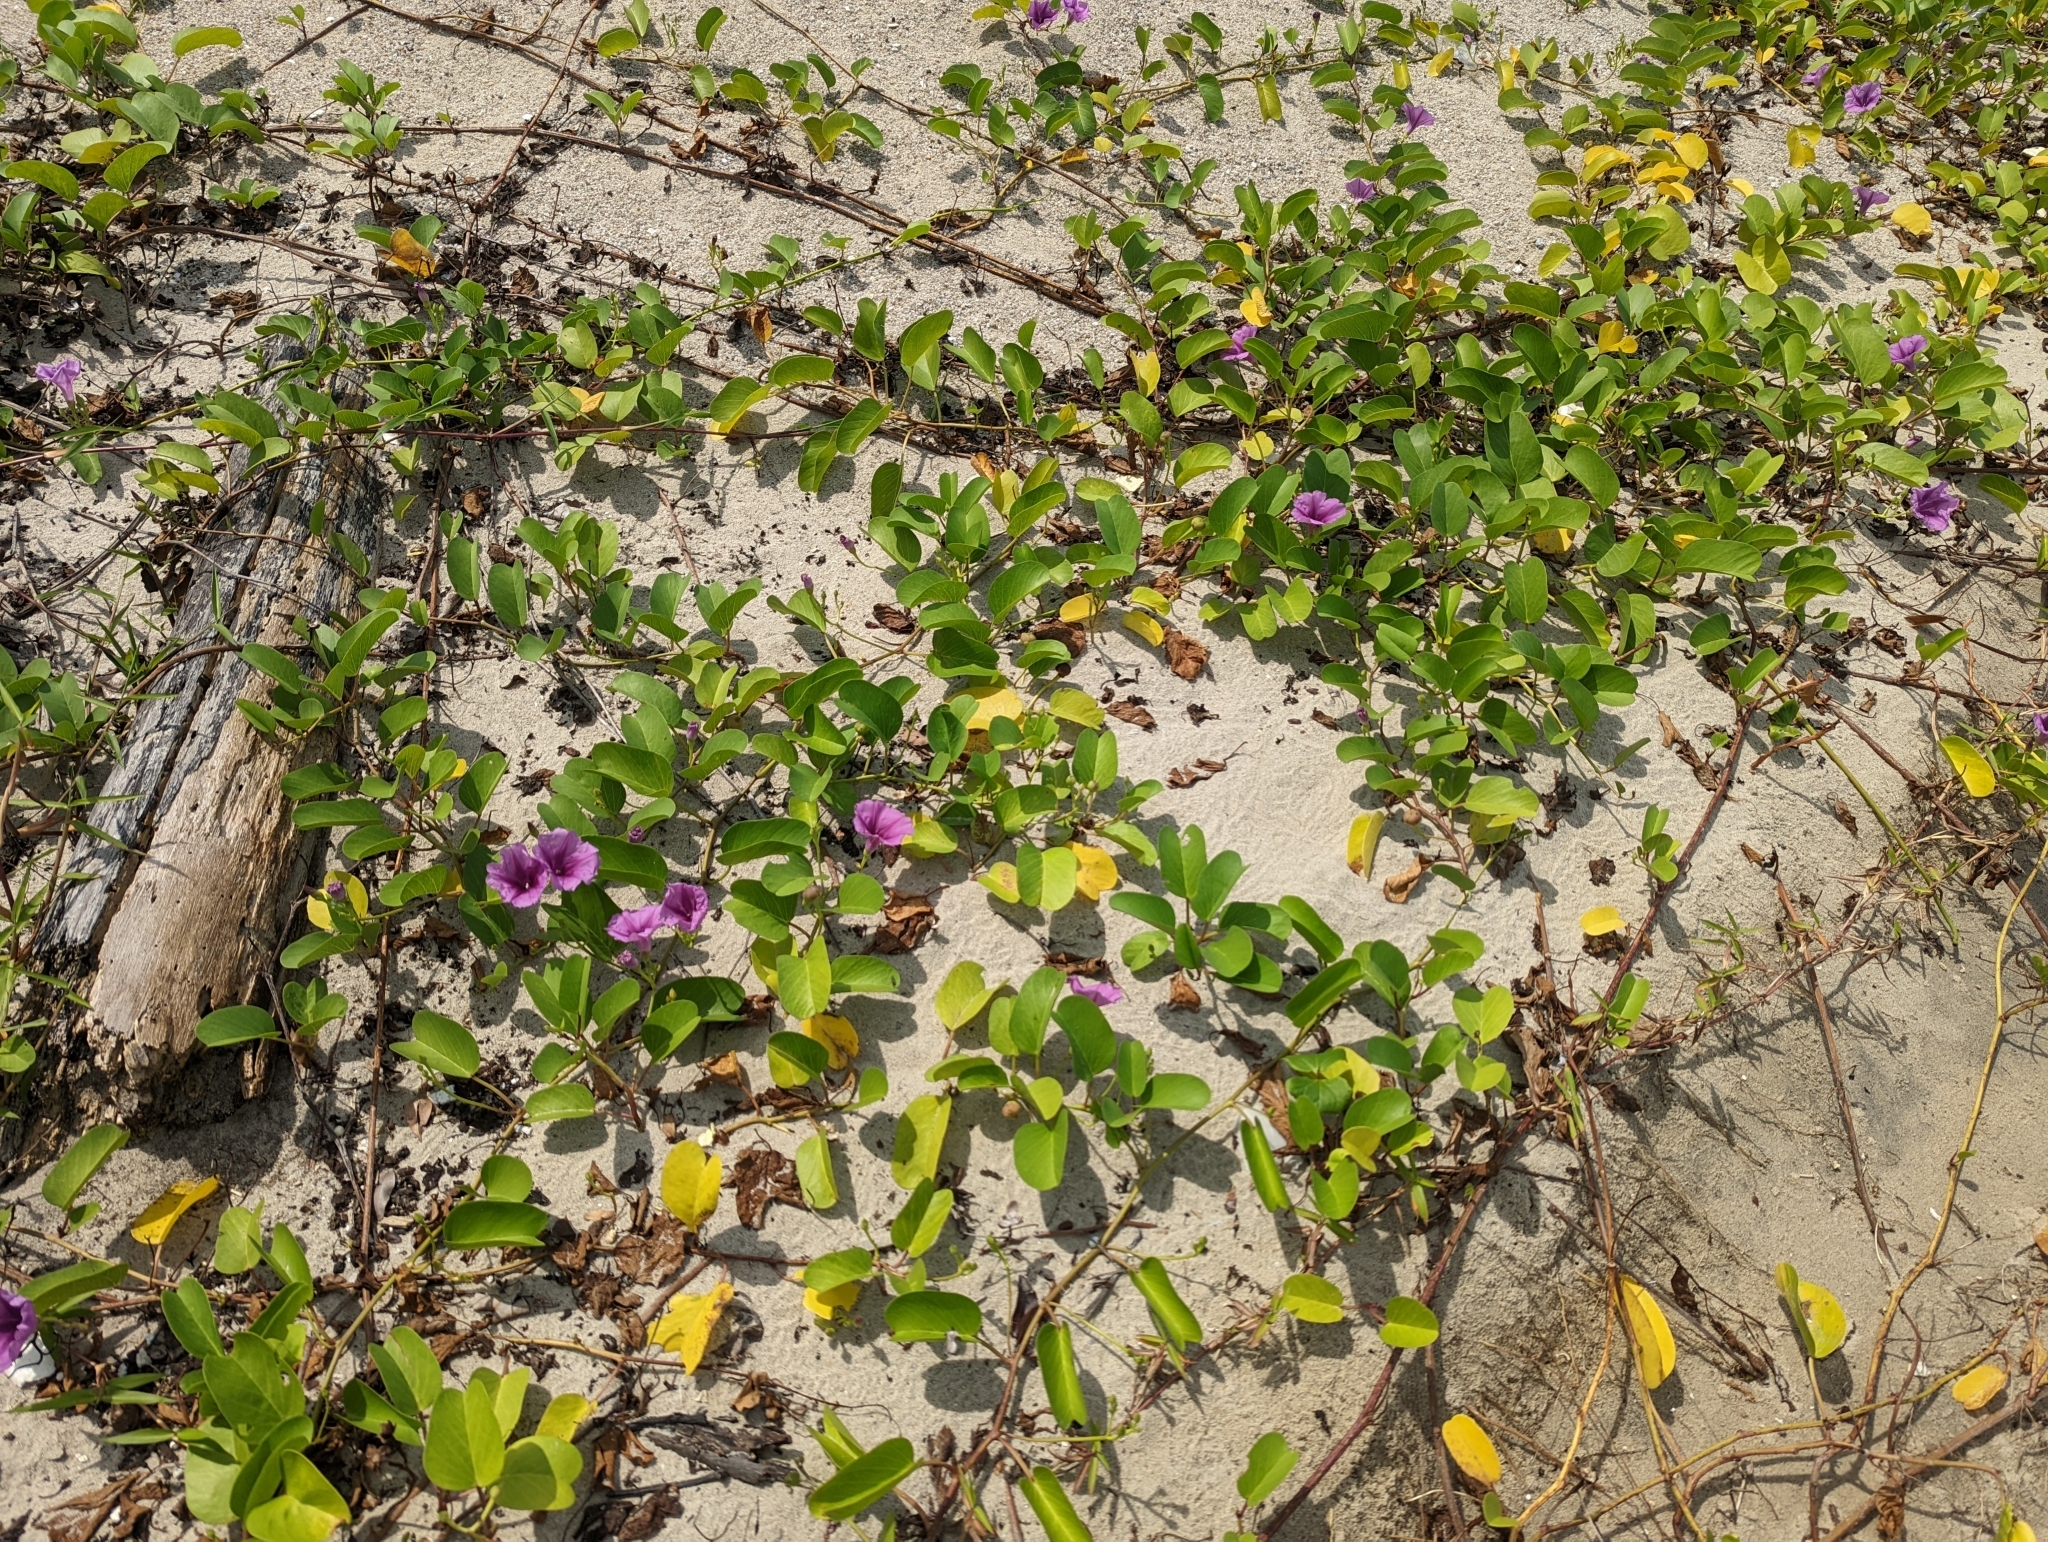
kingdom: Plantae
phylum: Tracheophyta
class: Magnoliopsida
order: Solanales
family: Convolvulaceae
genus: Ipomoea
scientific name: Ipomoea pes-caprae
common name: Beach morning glory
